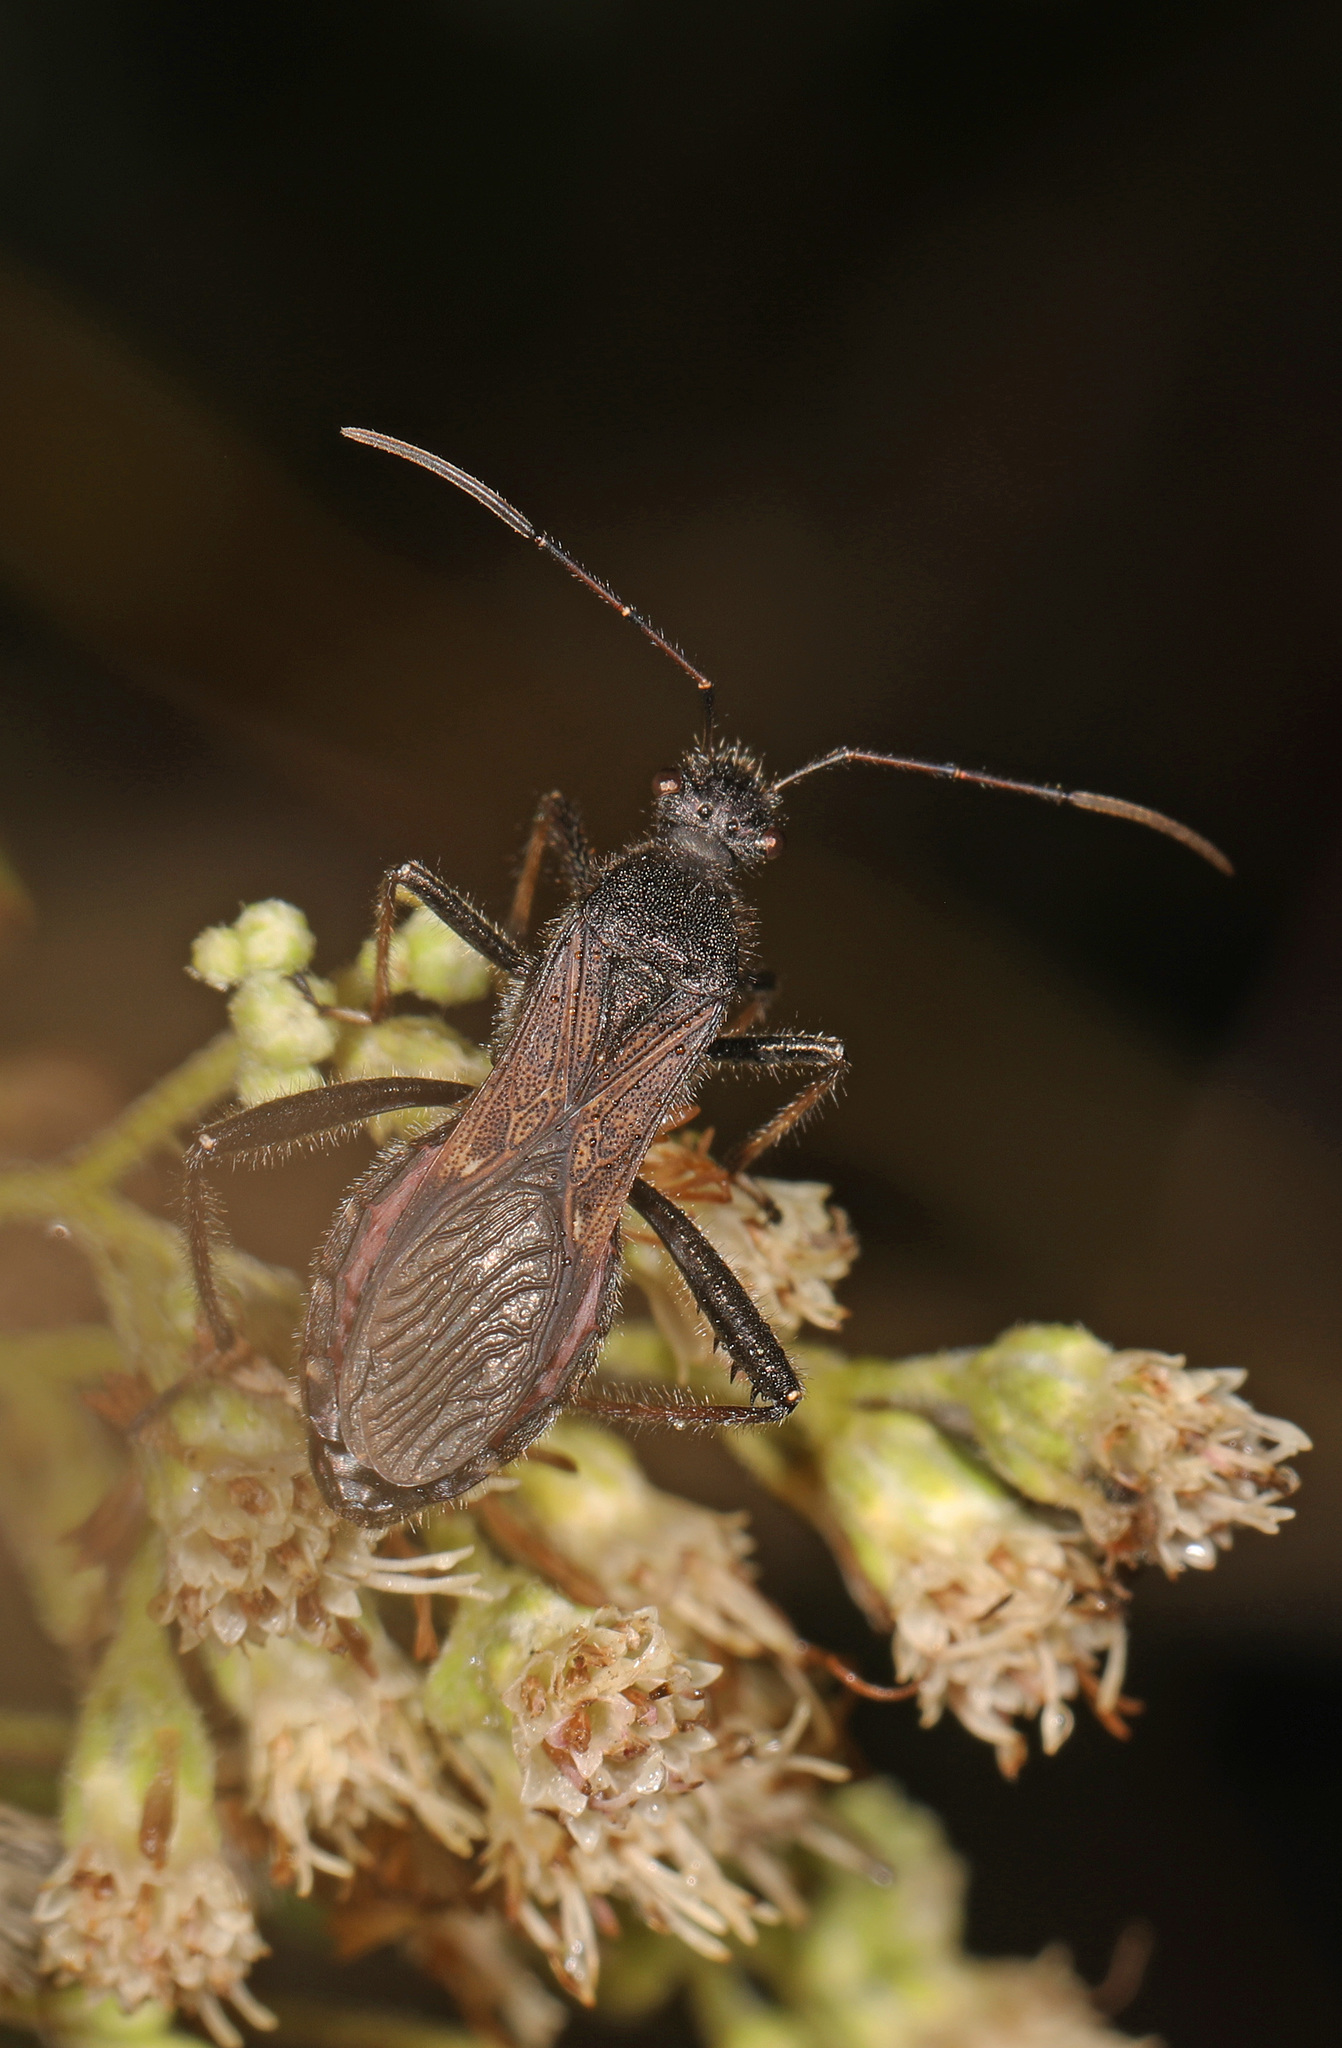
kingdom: Animalia
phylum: Arthropoda
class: Insecta
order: Hemiptera
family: Alydidae
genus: Alydus
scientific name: Alydus eurinus
